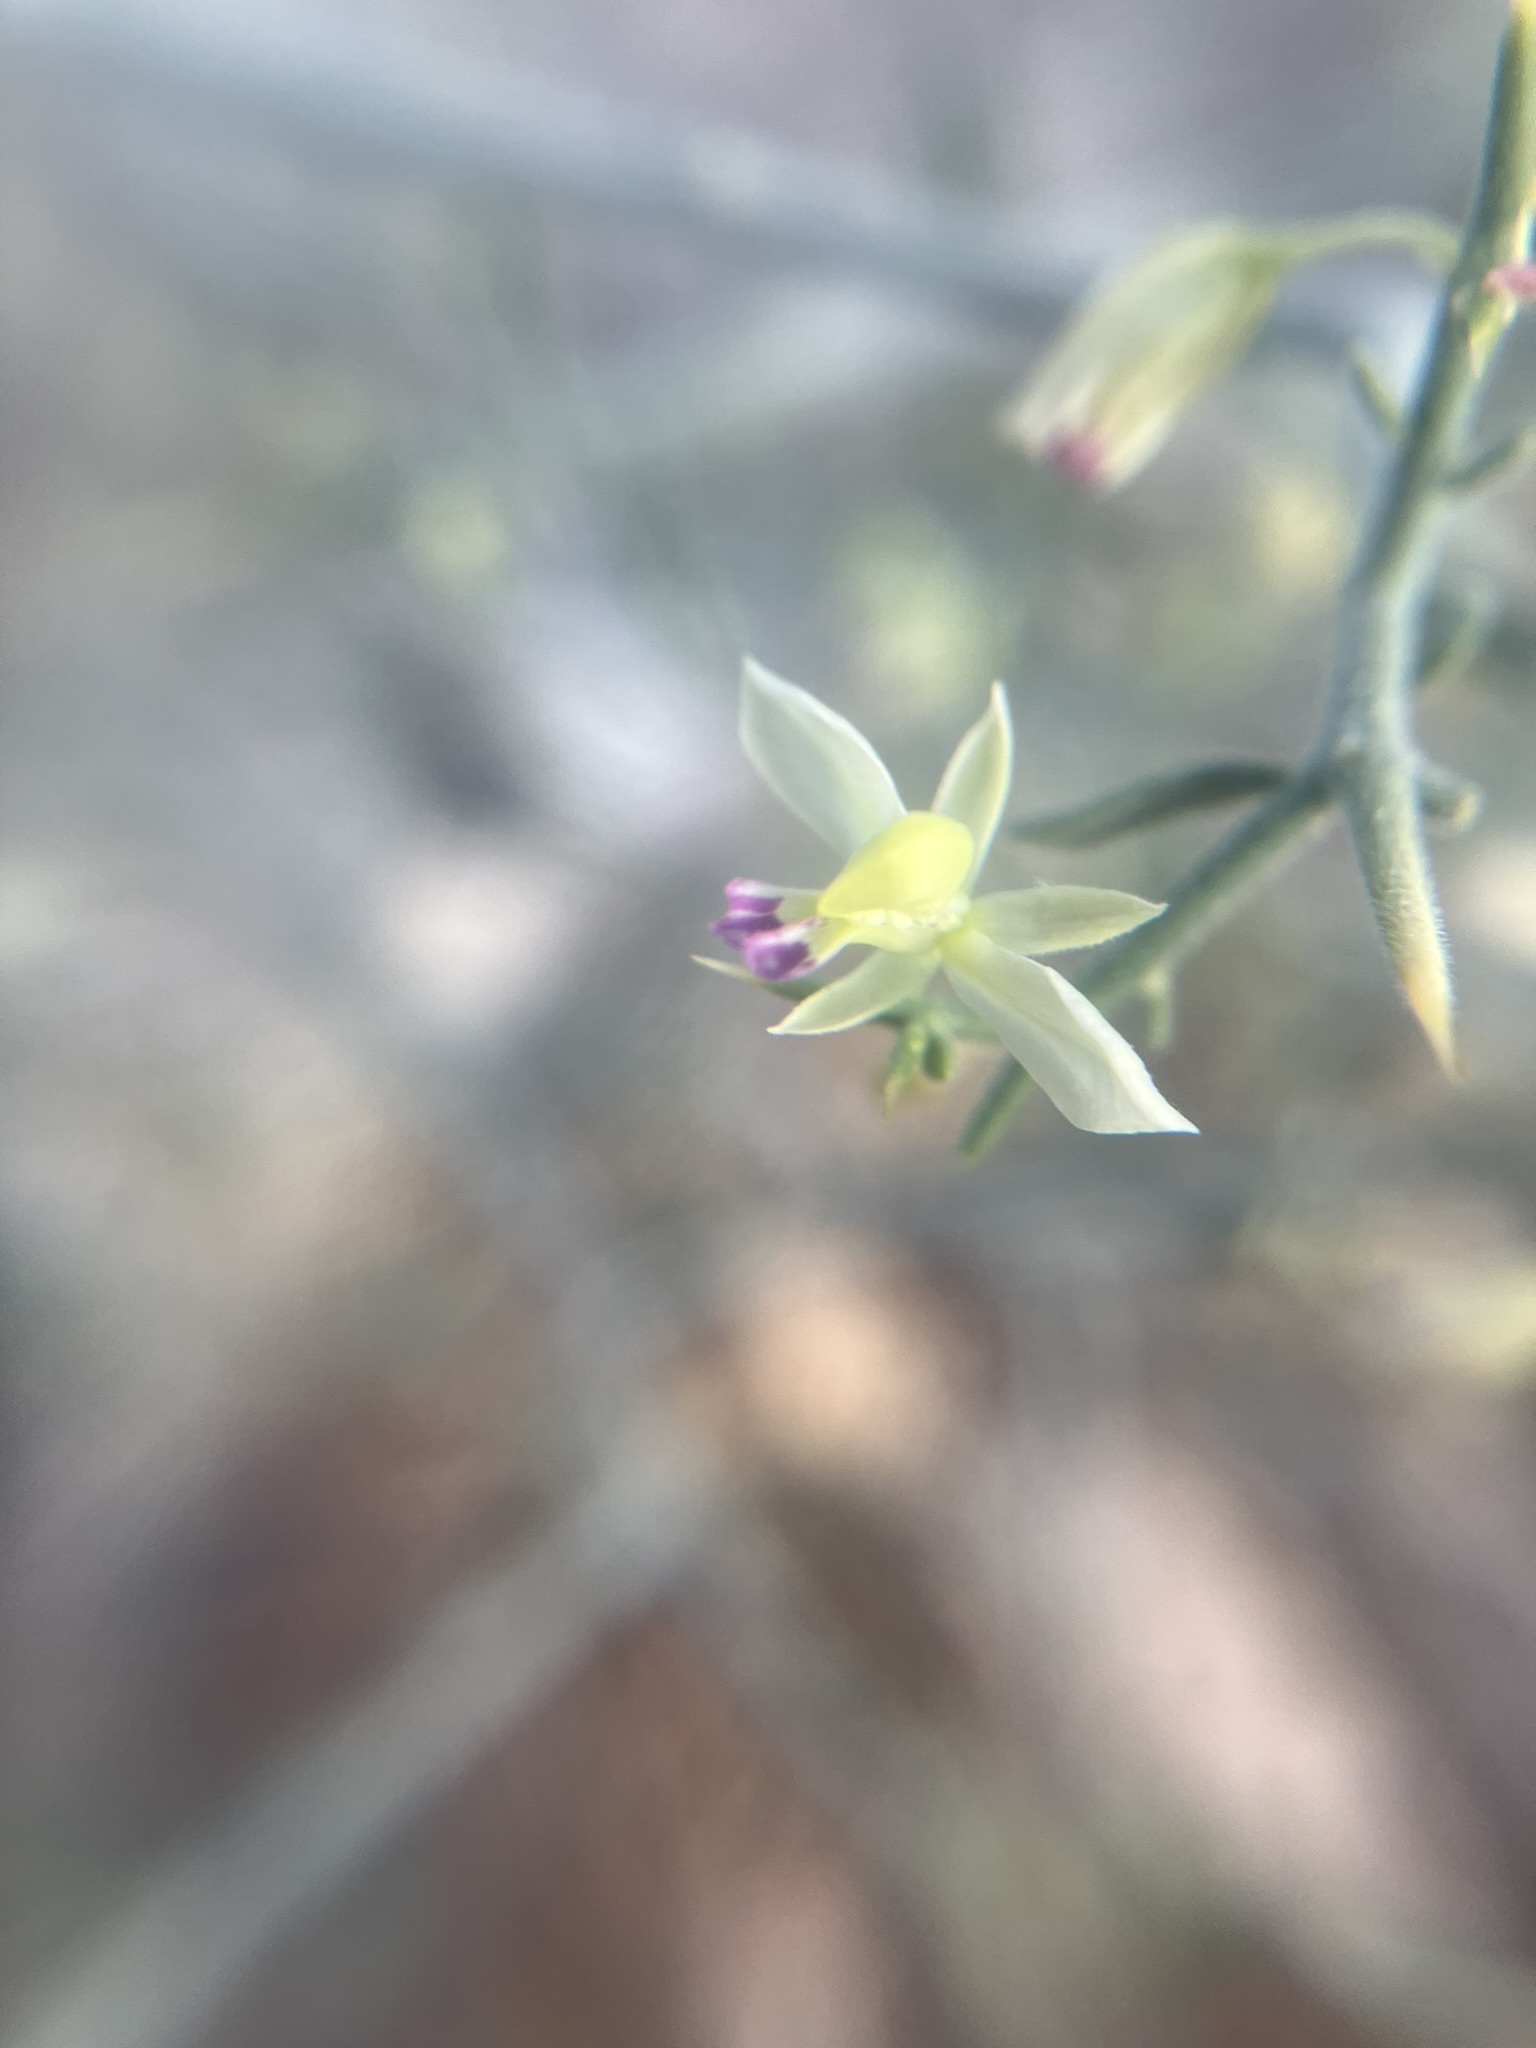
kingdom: Plantae
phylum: Tracheophyta
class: Magnoliopsida
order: Fabales
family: Polygalaceae
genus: Rhinotropis
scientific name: Rhinotropis acanthoclada
